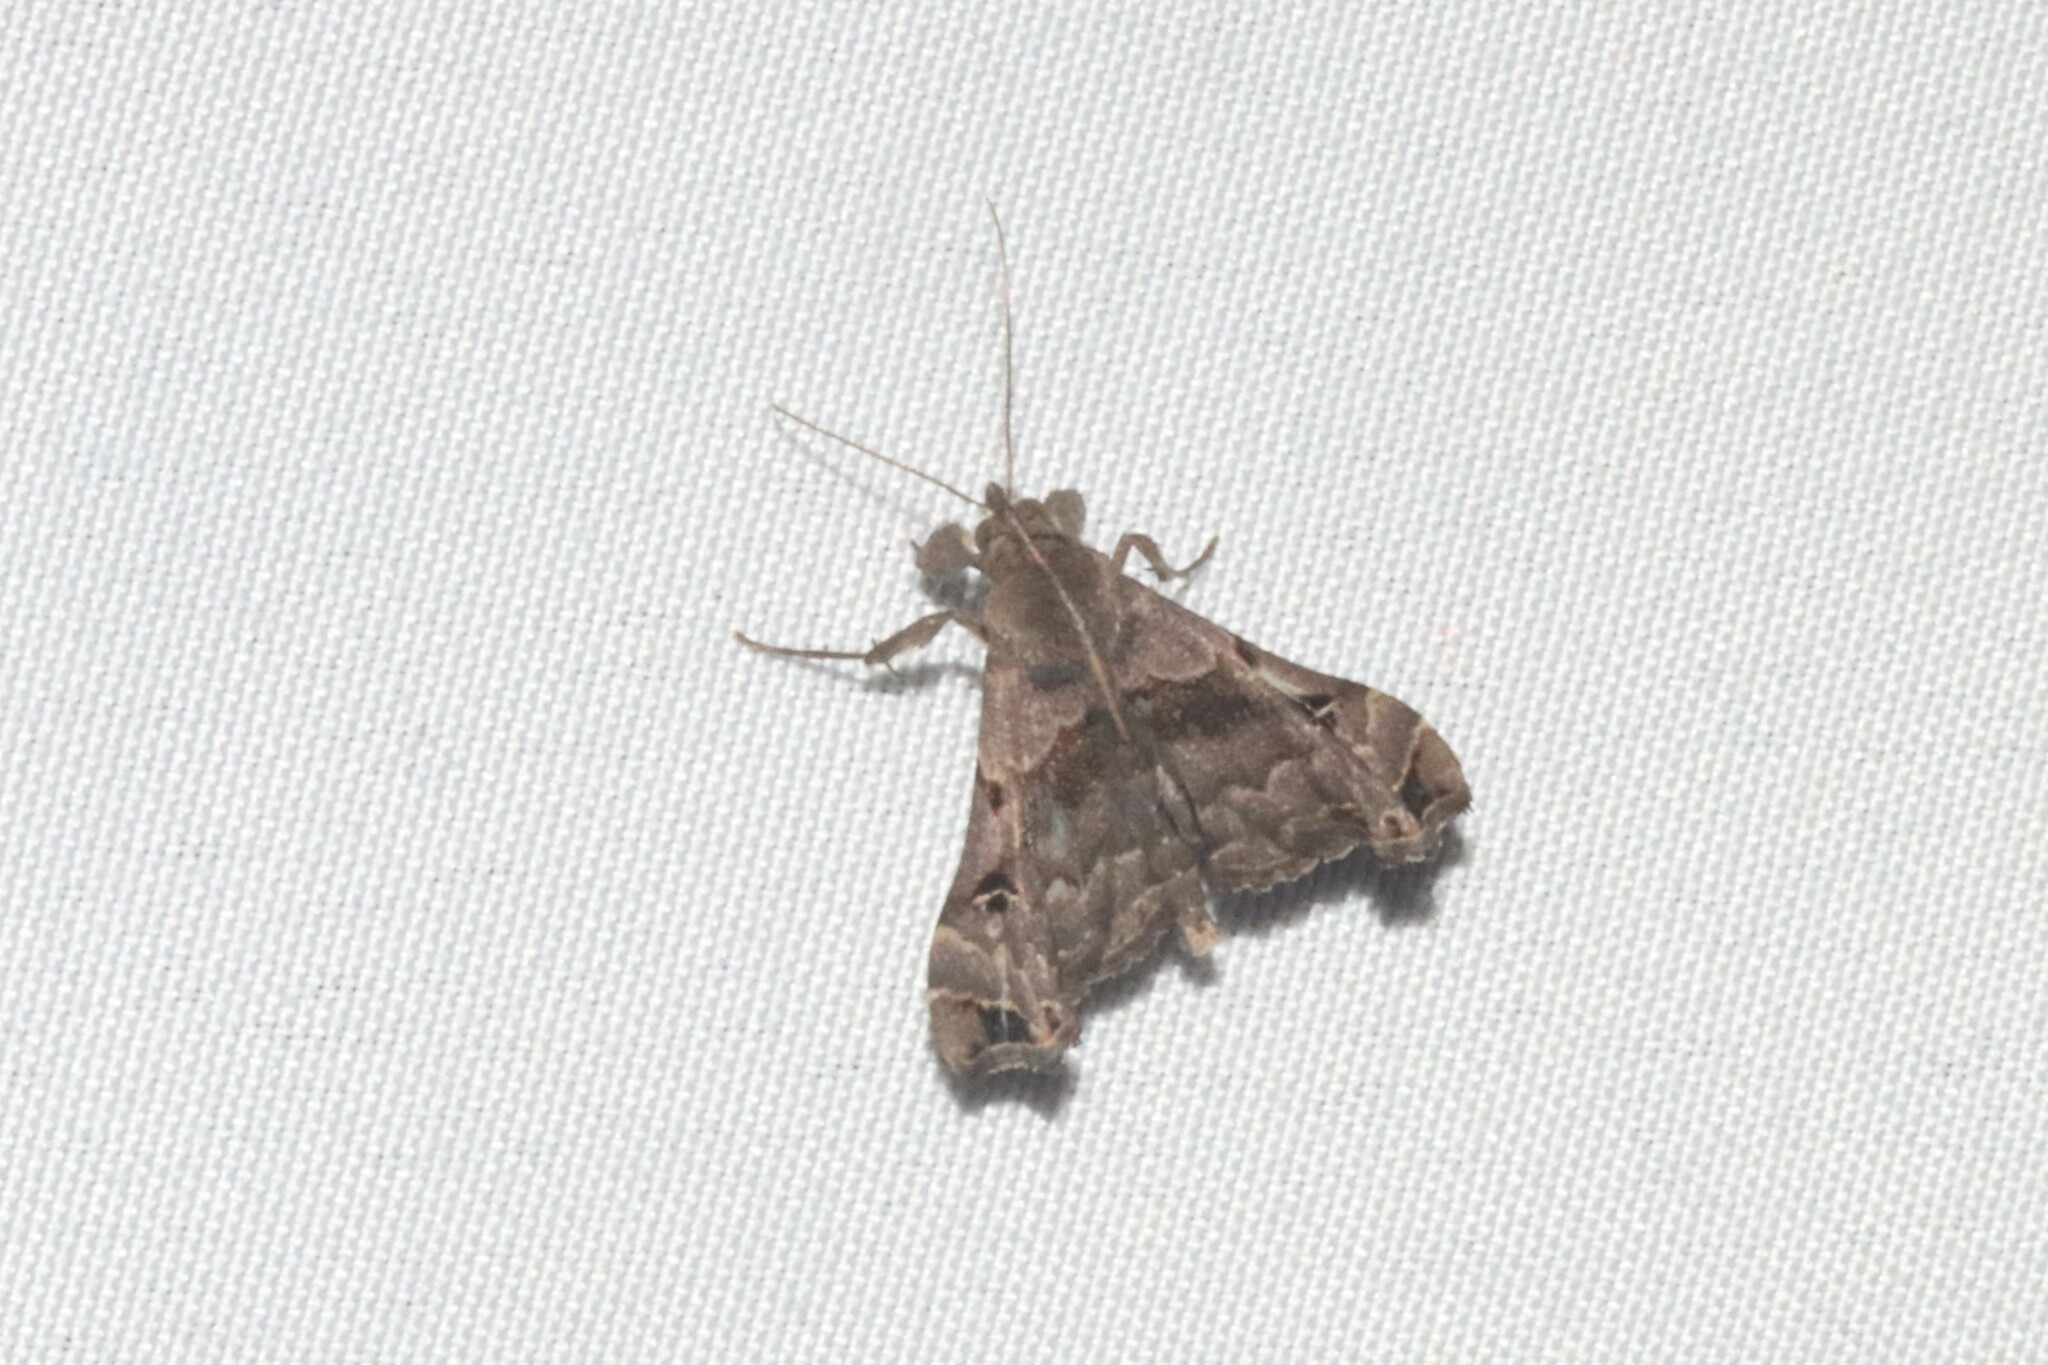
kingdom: Animalia
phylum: Arthropoda
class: Insecta
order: Lepidoptera
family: Erebidae
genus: Palthis
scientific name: Palthis asopialis
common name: Faint-spotted palthis moth
